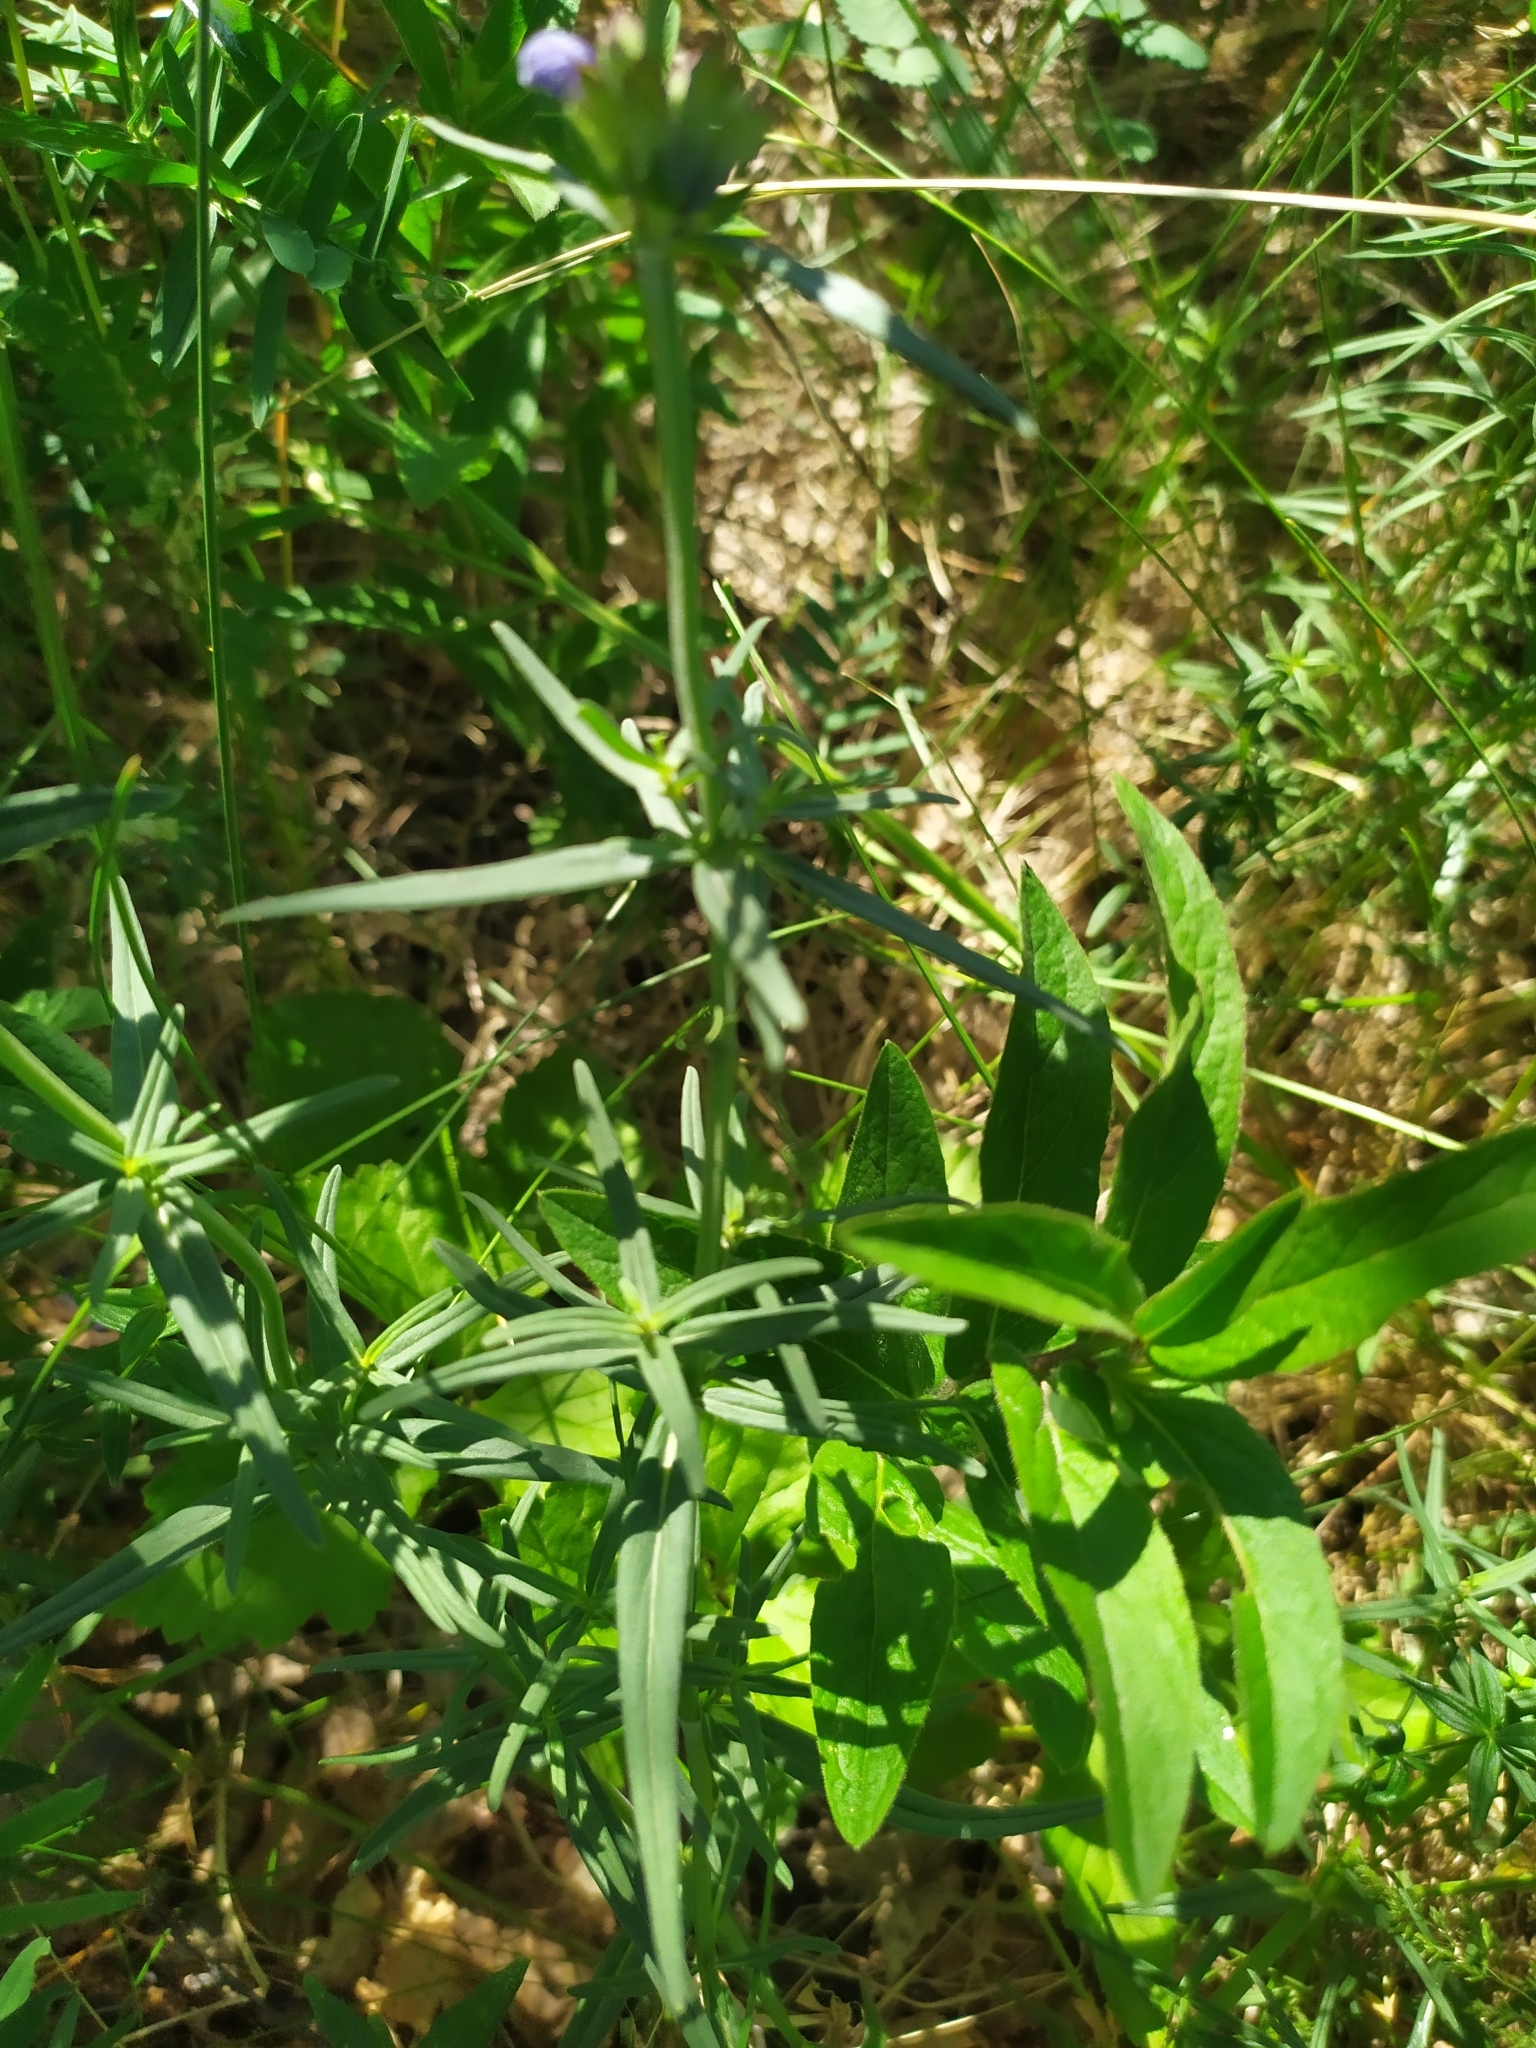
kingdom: Plantae
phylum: Tracheophyta
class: Magnoliopsida
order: Lamiales
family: Lamiaceae
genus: Dracocephalum
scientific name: Dracocephalum ruyschiana
